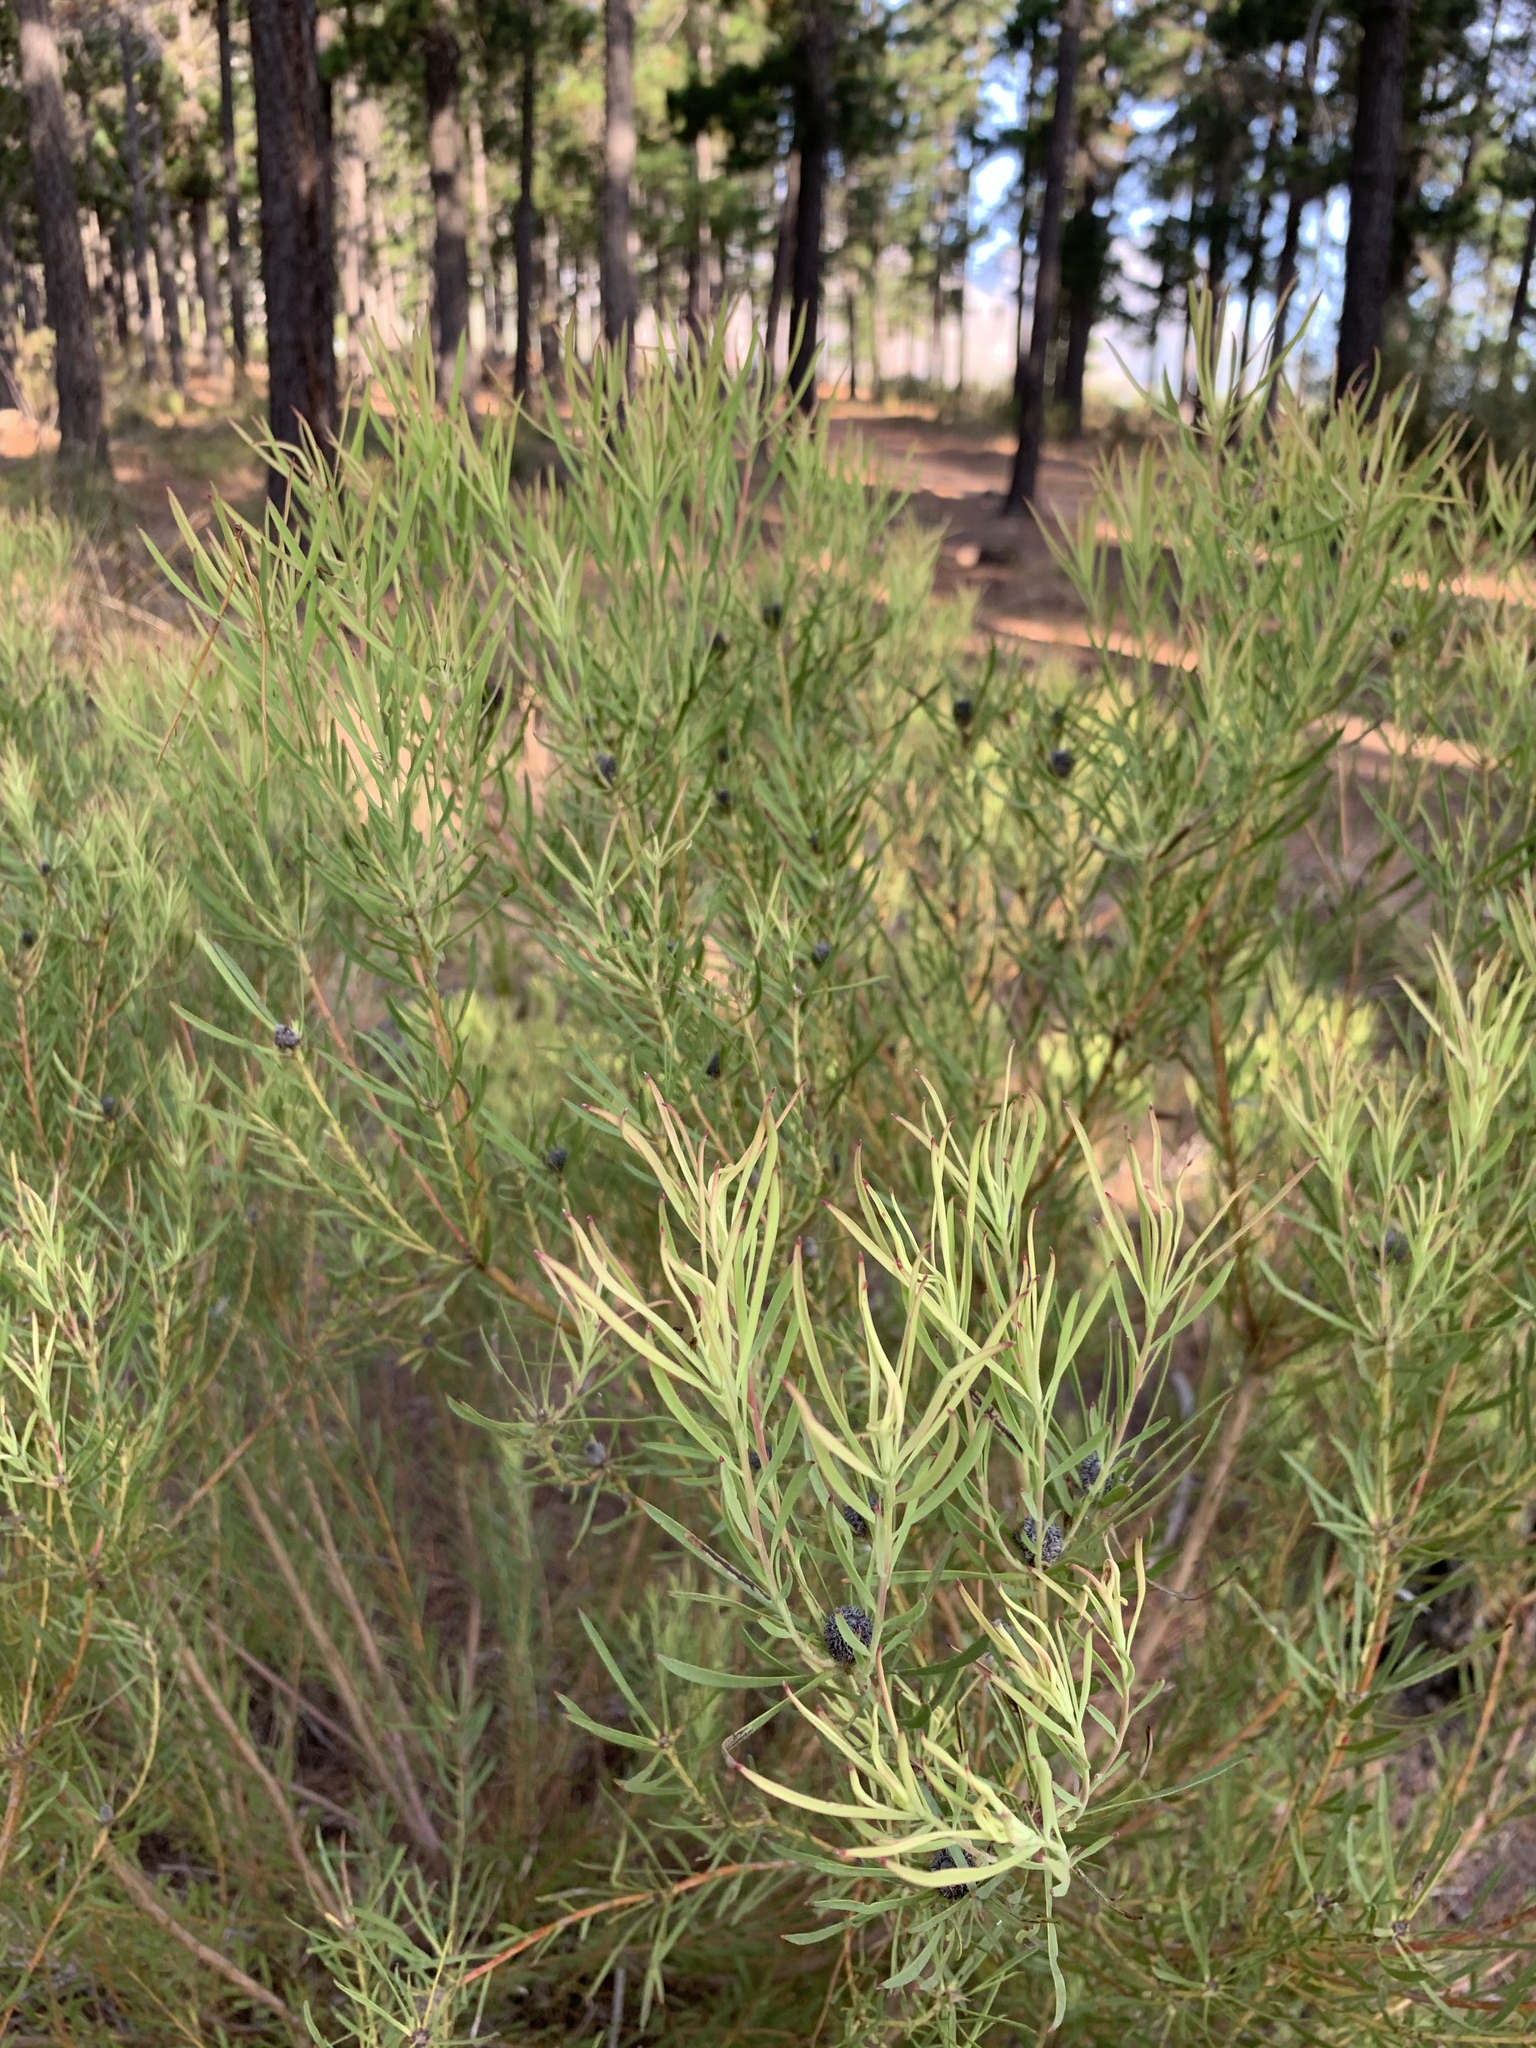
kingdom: Plantae
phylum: Tracheophyta
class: Magnoliopsida
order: Proteales
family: Proteaceae
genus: Leucadendron
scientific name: Leucadendron salignum
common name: Common sunshine conebush
